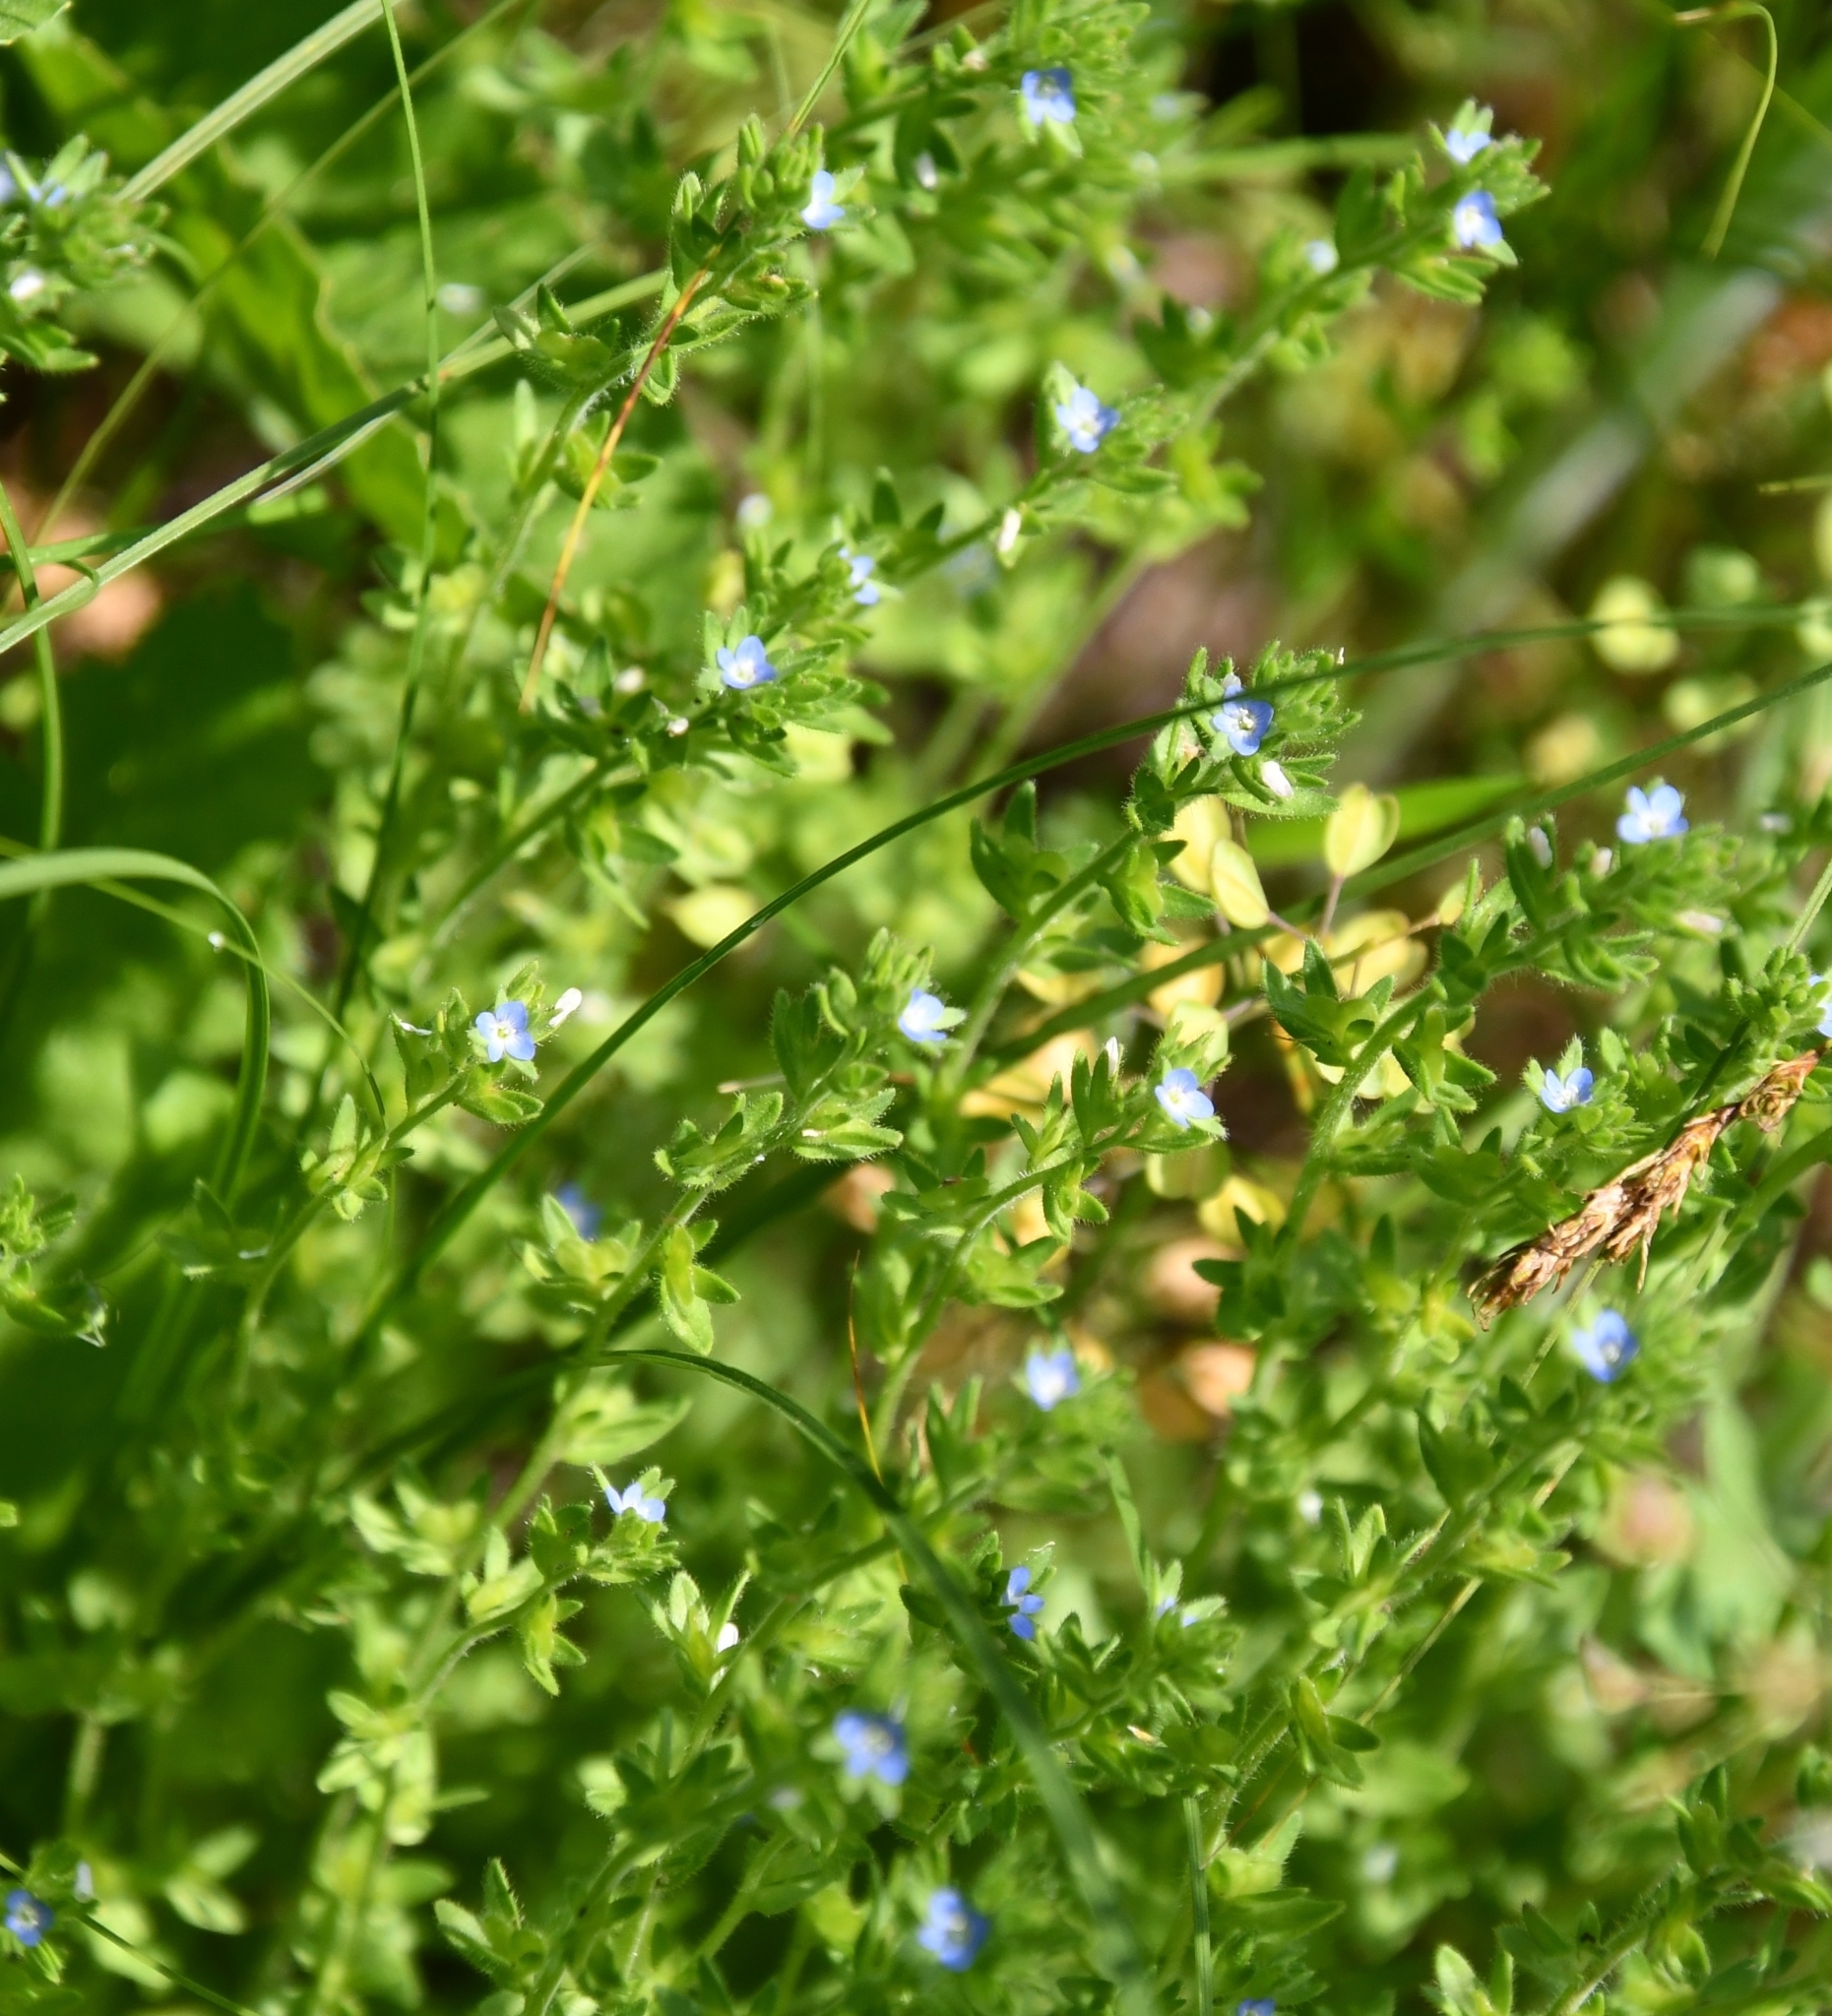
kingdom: Plantae
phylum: Tracheophyta
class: Magnoliopsida
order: Lamiales
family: Plantaginaceae
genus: Veronica
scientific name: Veronica arvensis
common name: Corn speedwell
